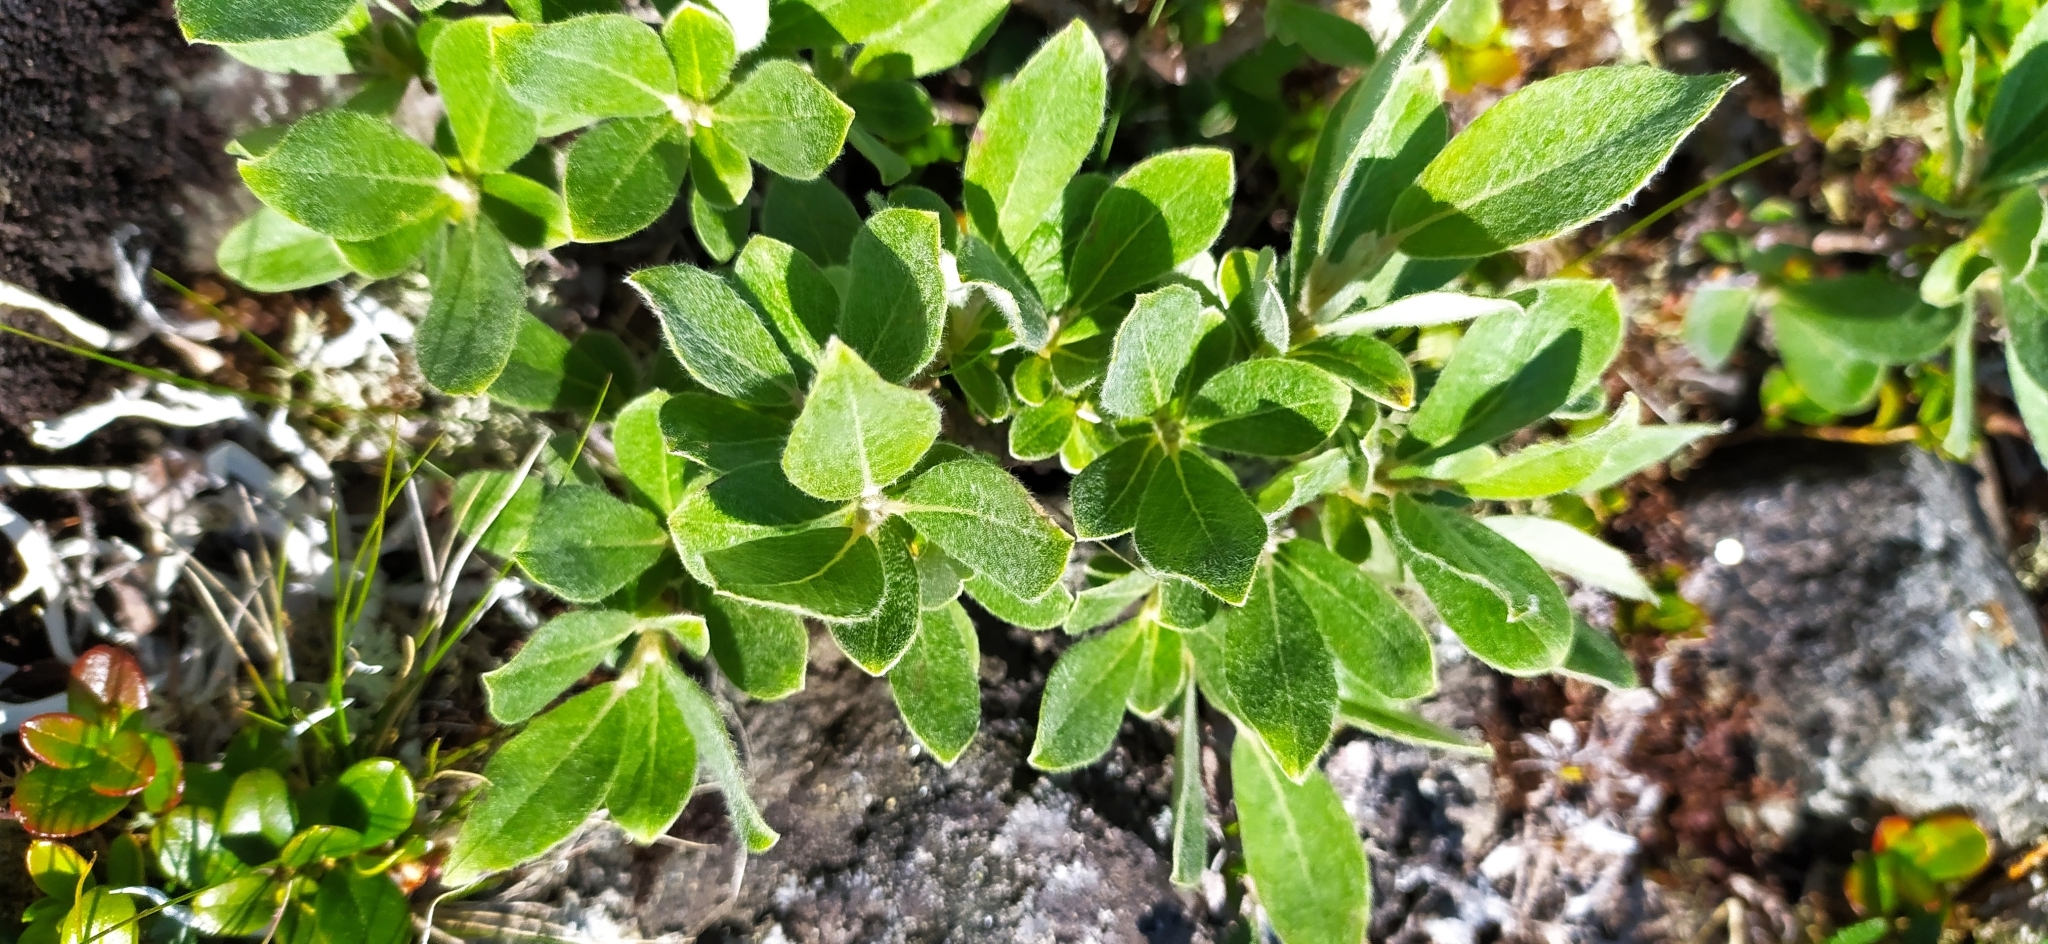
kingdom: Plantae
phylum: Tracheophyta
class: Magnoliopsida
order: Malpighiales
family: Salicaceae
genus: Salix
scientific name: Salix recurvigemmata
